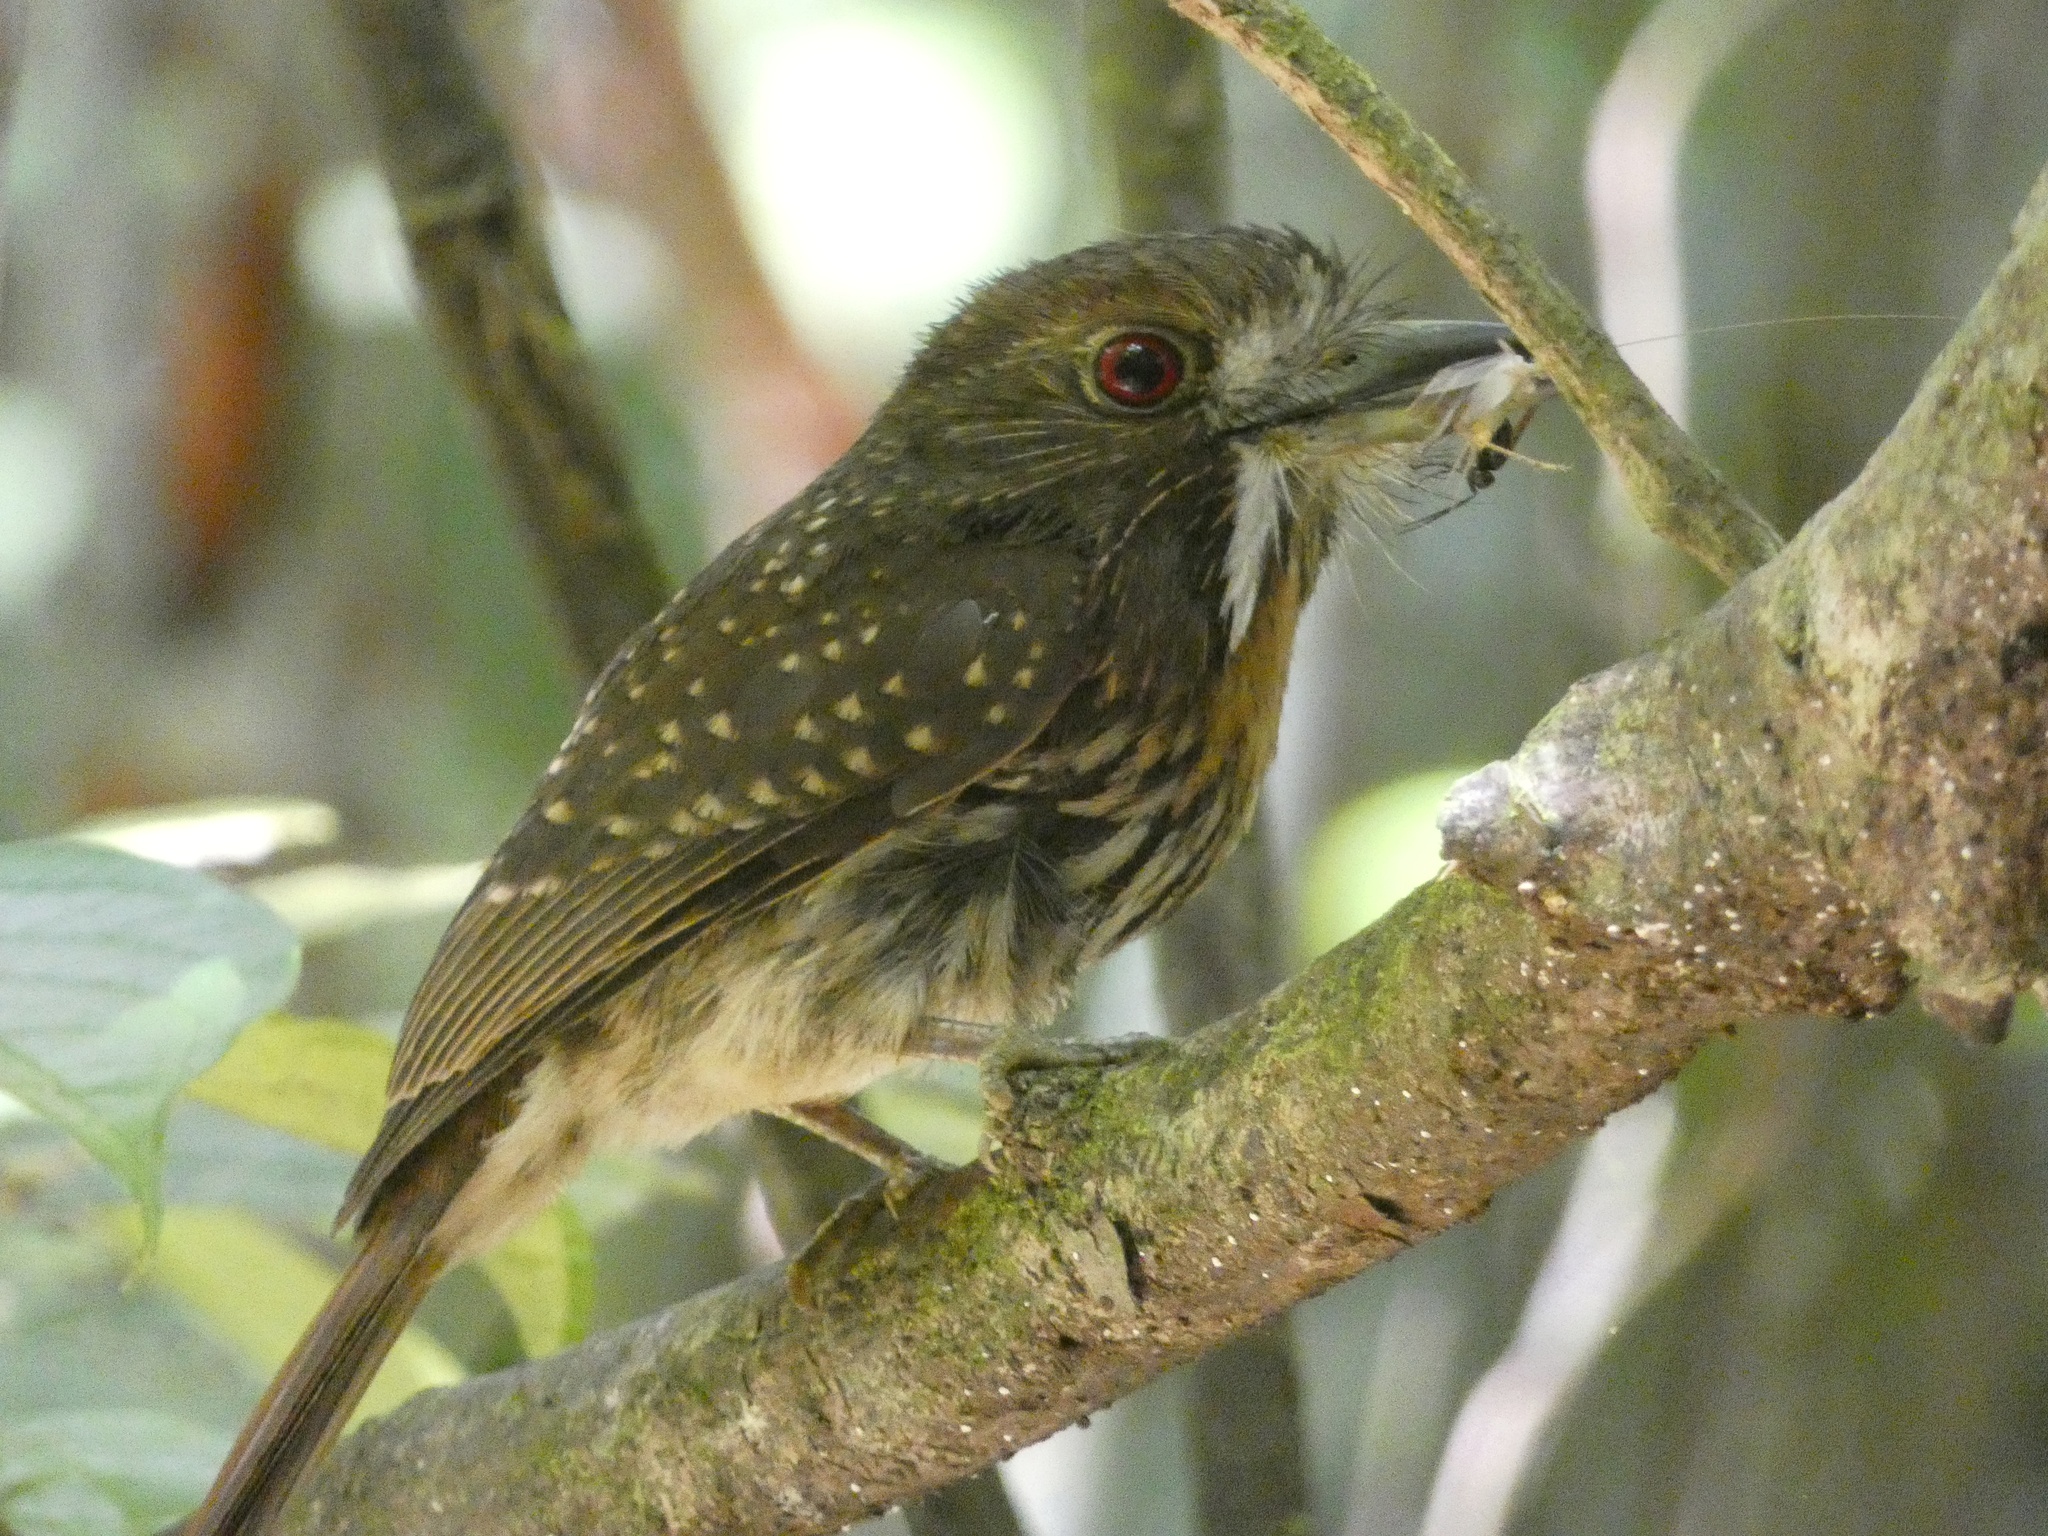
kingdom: Animalia
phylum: Chordata
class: Aves
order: Piciformes
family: Bucconidae
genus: Malacoptila
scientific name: Malacoptila panamensis
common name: White-whiskered puffbird
